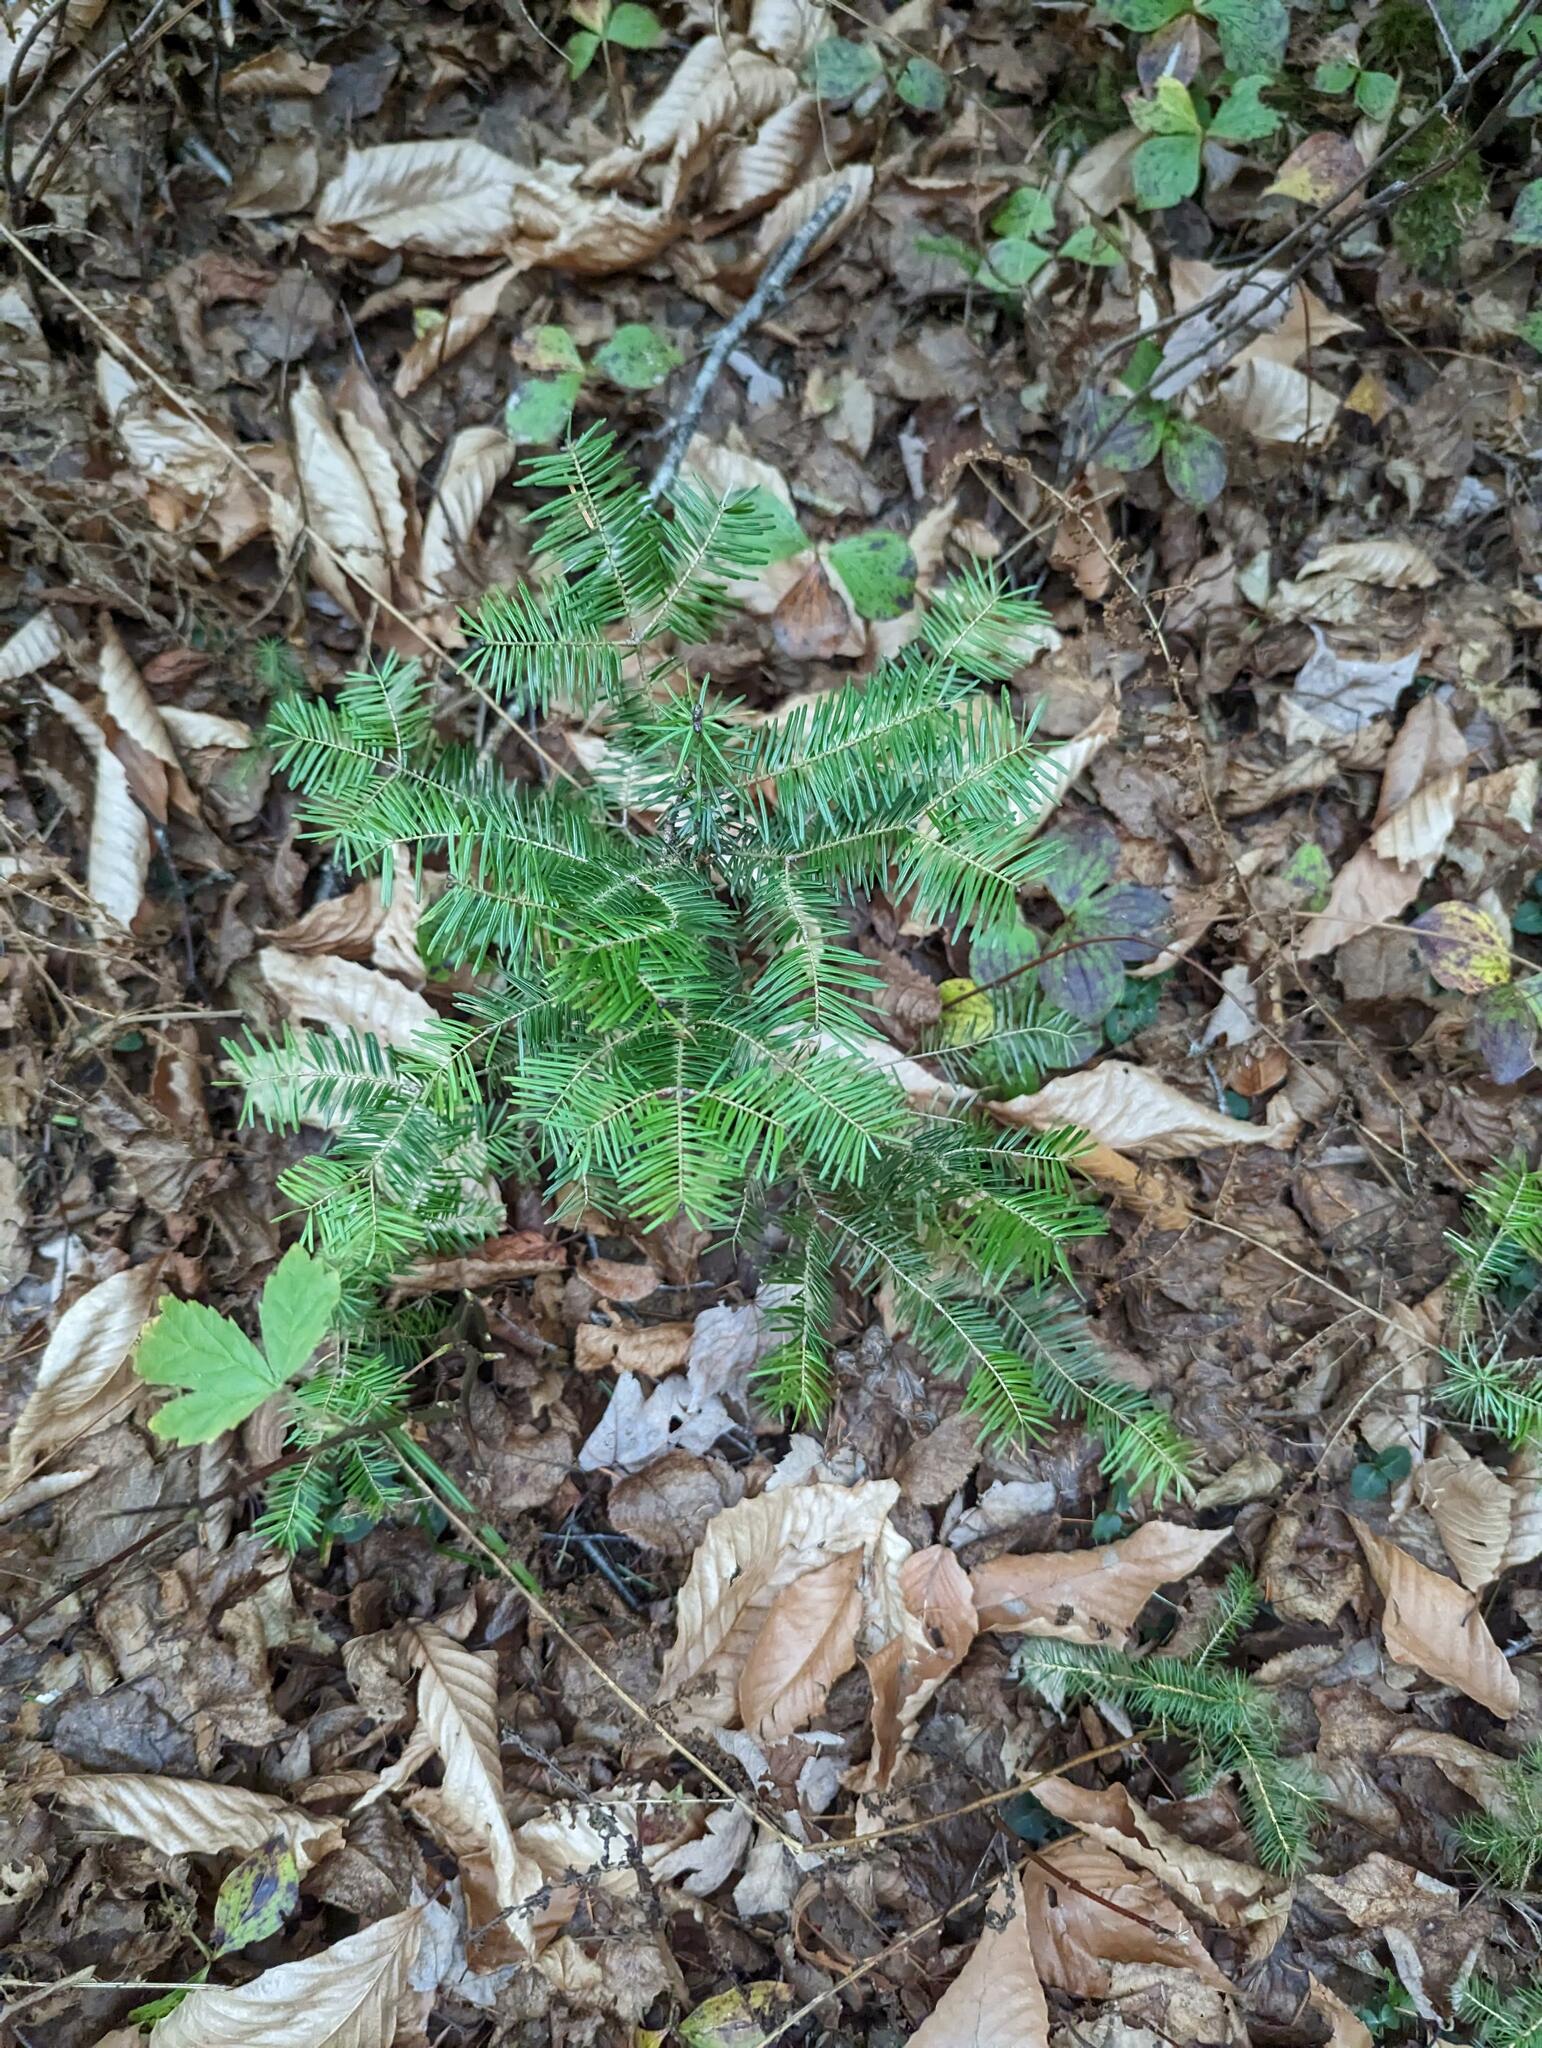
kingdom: Plantae
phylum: Tracheophyta
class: Pinopsida
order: Pinales
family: Pinaceae
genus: Abies
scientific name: Abies balsamea
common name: Balsam fir
